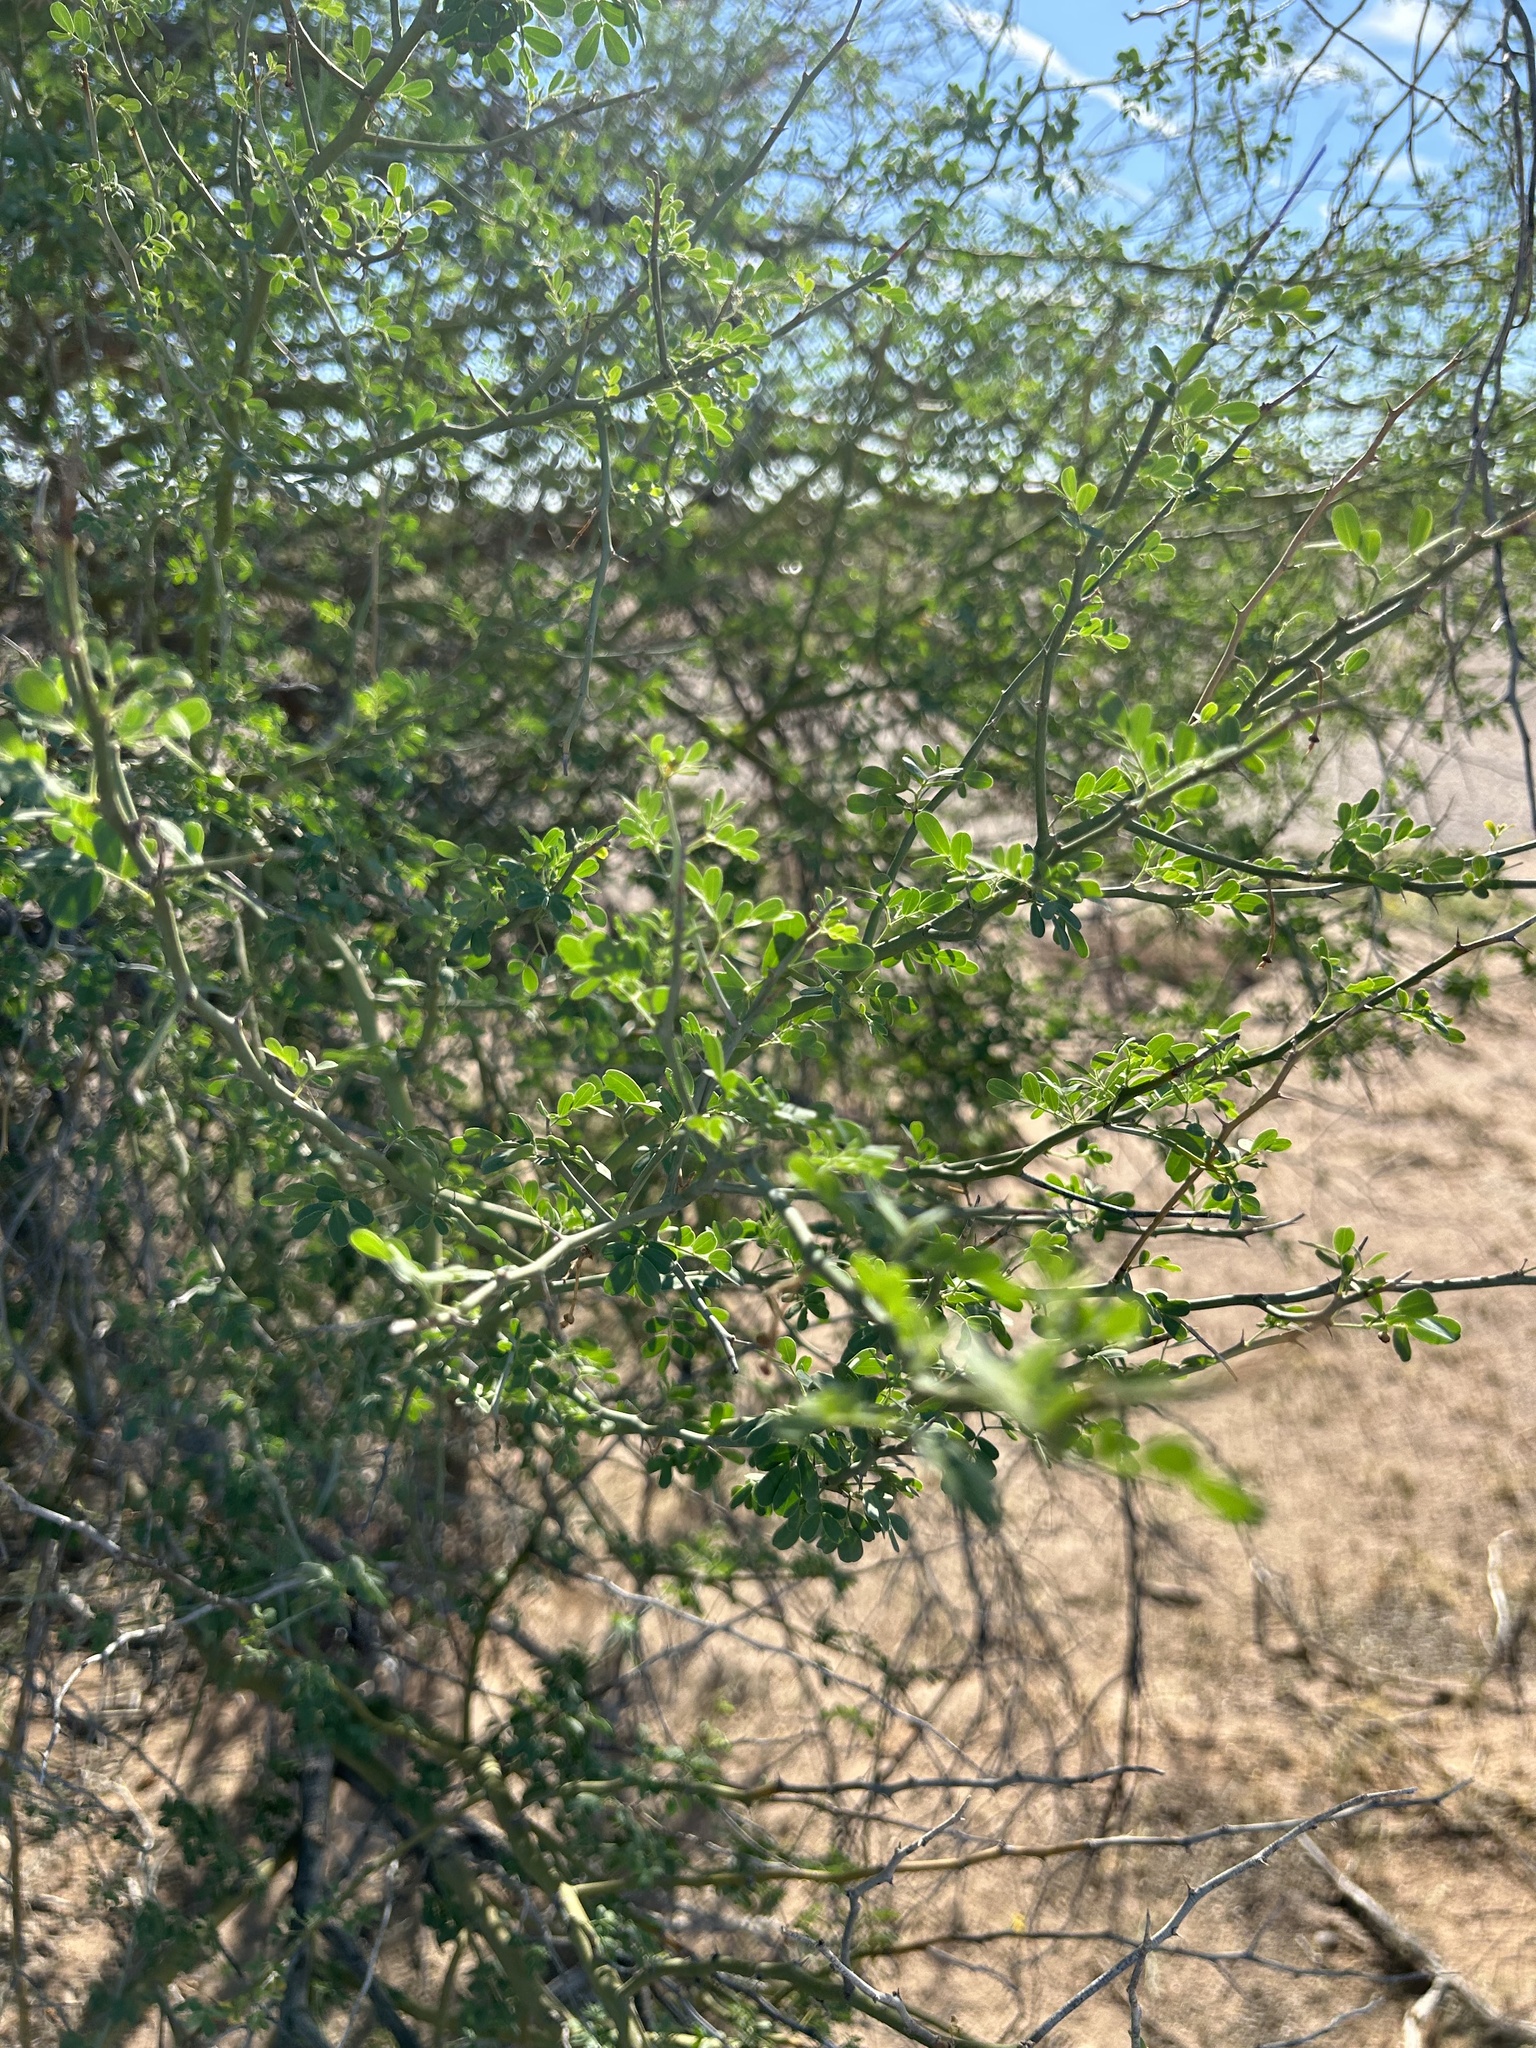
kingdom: Plantae
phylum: Tracheophyta
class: Magnoliopsida
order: Fabales
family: Fabaceae
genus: Parkinsonia
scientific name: Parkinsonia florida
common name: Blue paloverde
